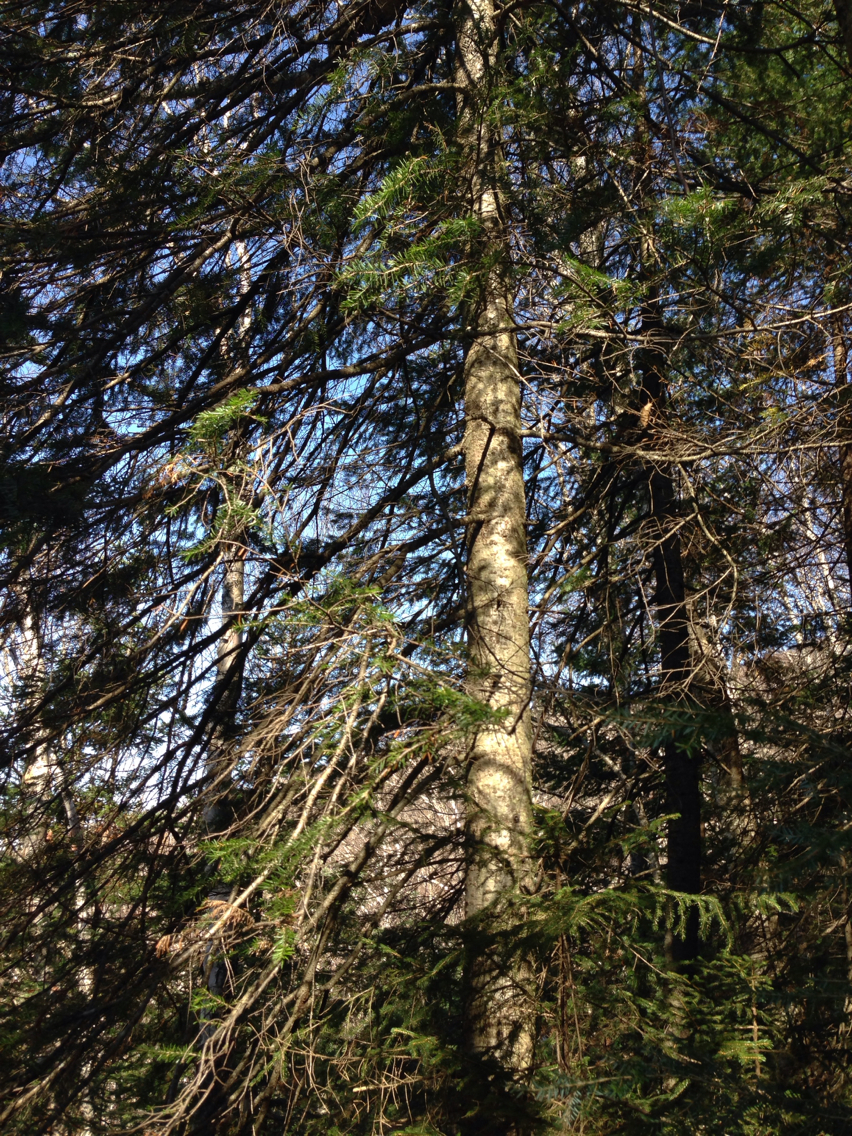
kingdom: Plantae
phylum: Tracheophyta
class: Pinopsida
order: Pinales
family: Pinaceae
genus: Abies
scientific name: Abies balsamea
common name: Balsam fir
